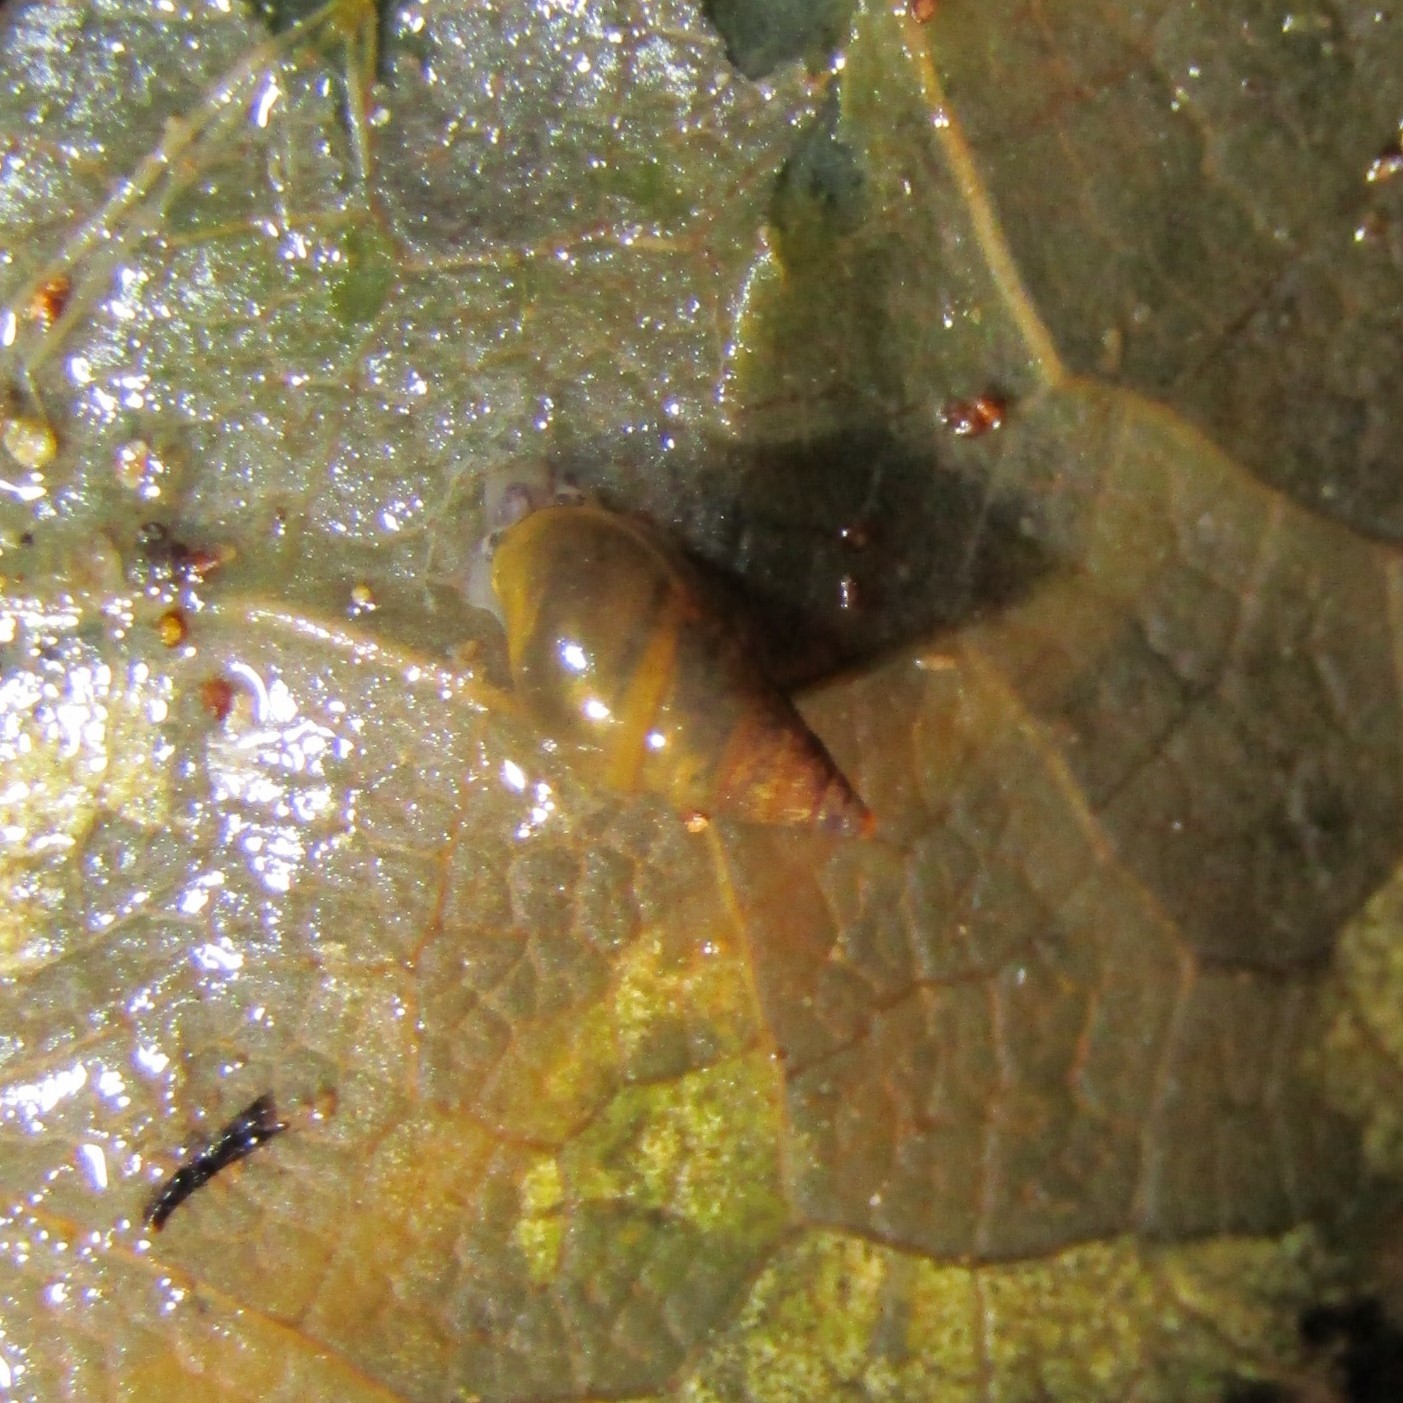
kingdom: Animalia
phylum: Mollusca
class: Gastropoda
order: Littorinimorpha
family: Tateidae
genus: Potamopyrgus
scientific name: Potamopyrgus antipodarum
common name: Jenkins' spire snail
